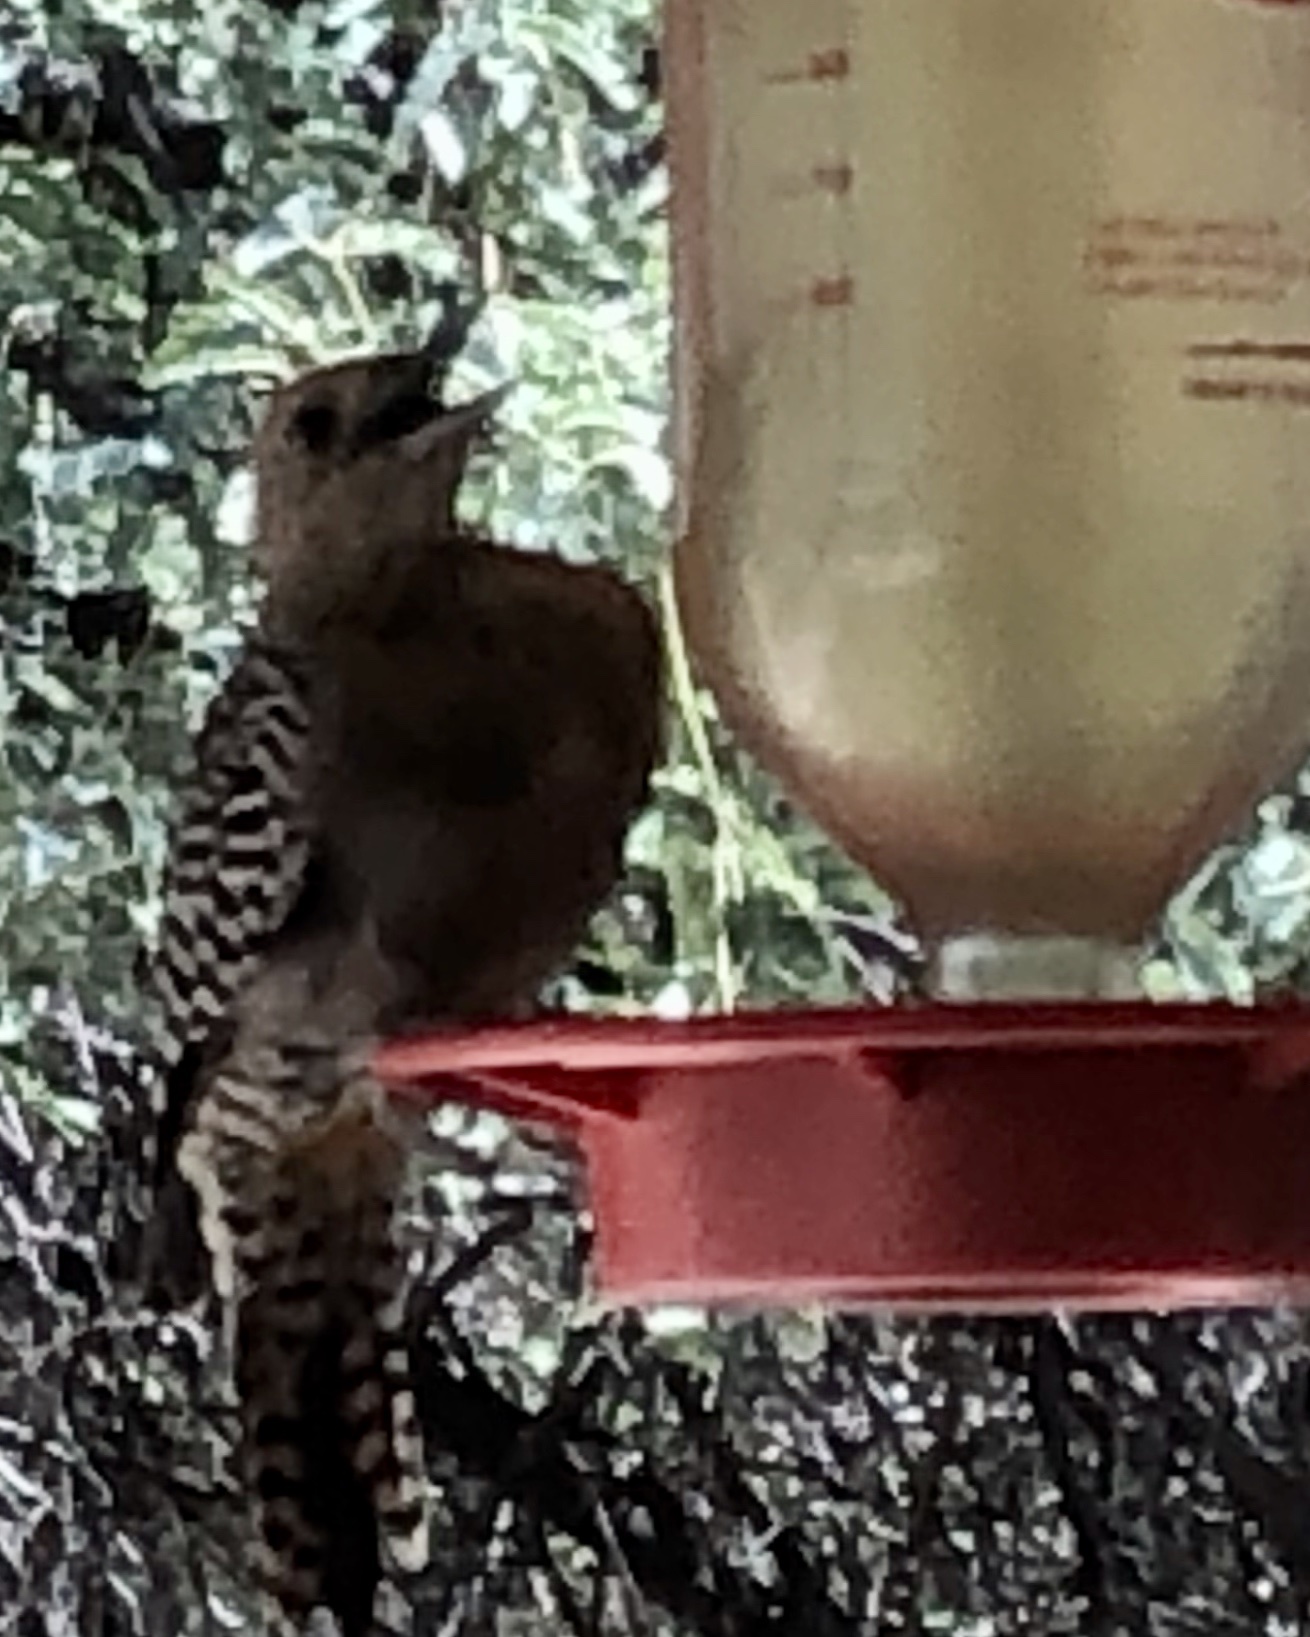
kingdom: Animalia
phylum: Chordata
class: Aves
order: Piciformes
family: Picidae
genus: Melanerpes
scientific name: Melanerpes uropygialis
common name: Gila woodpecker
